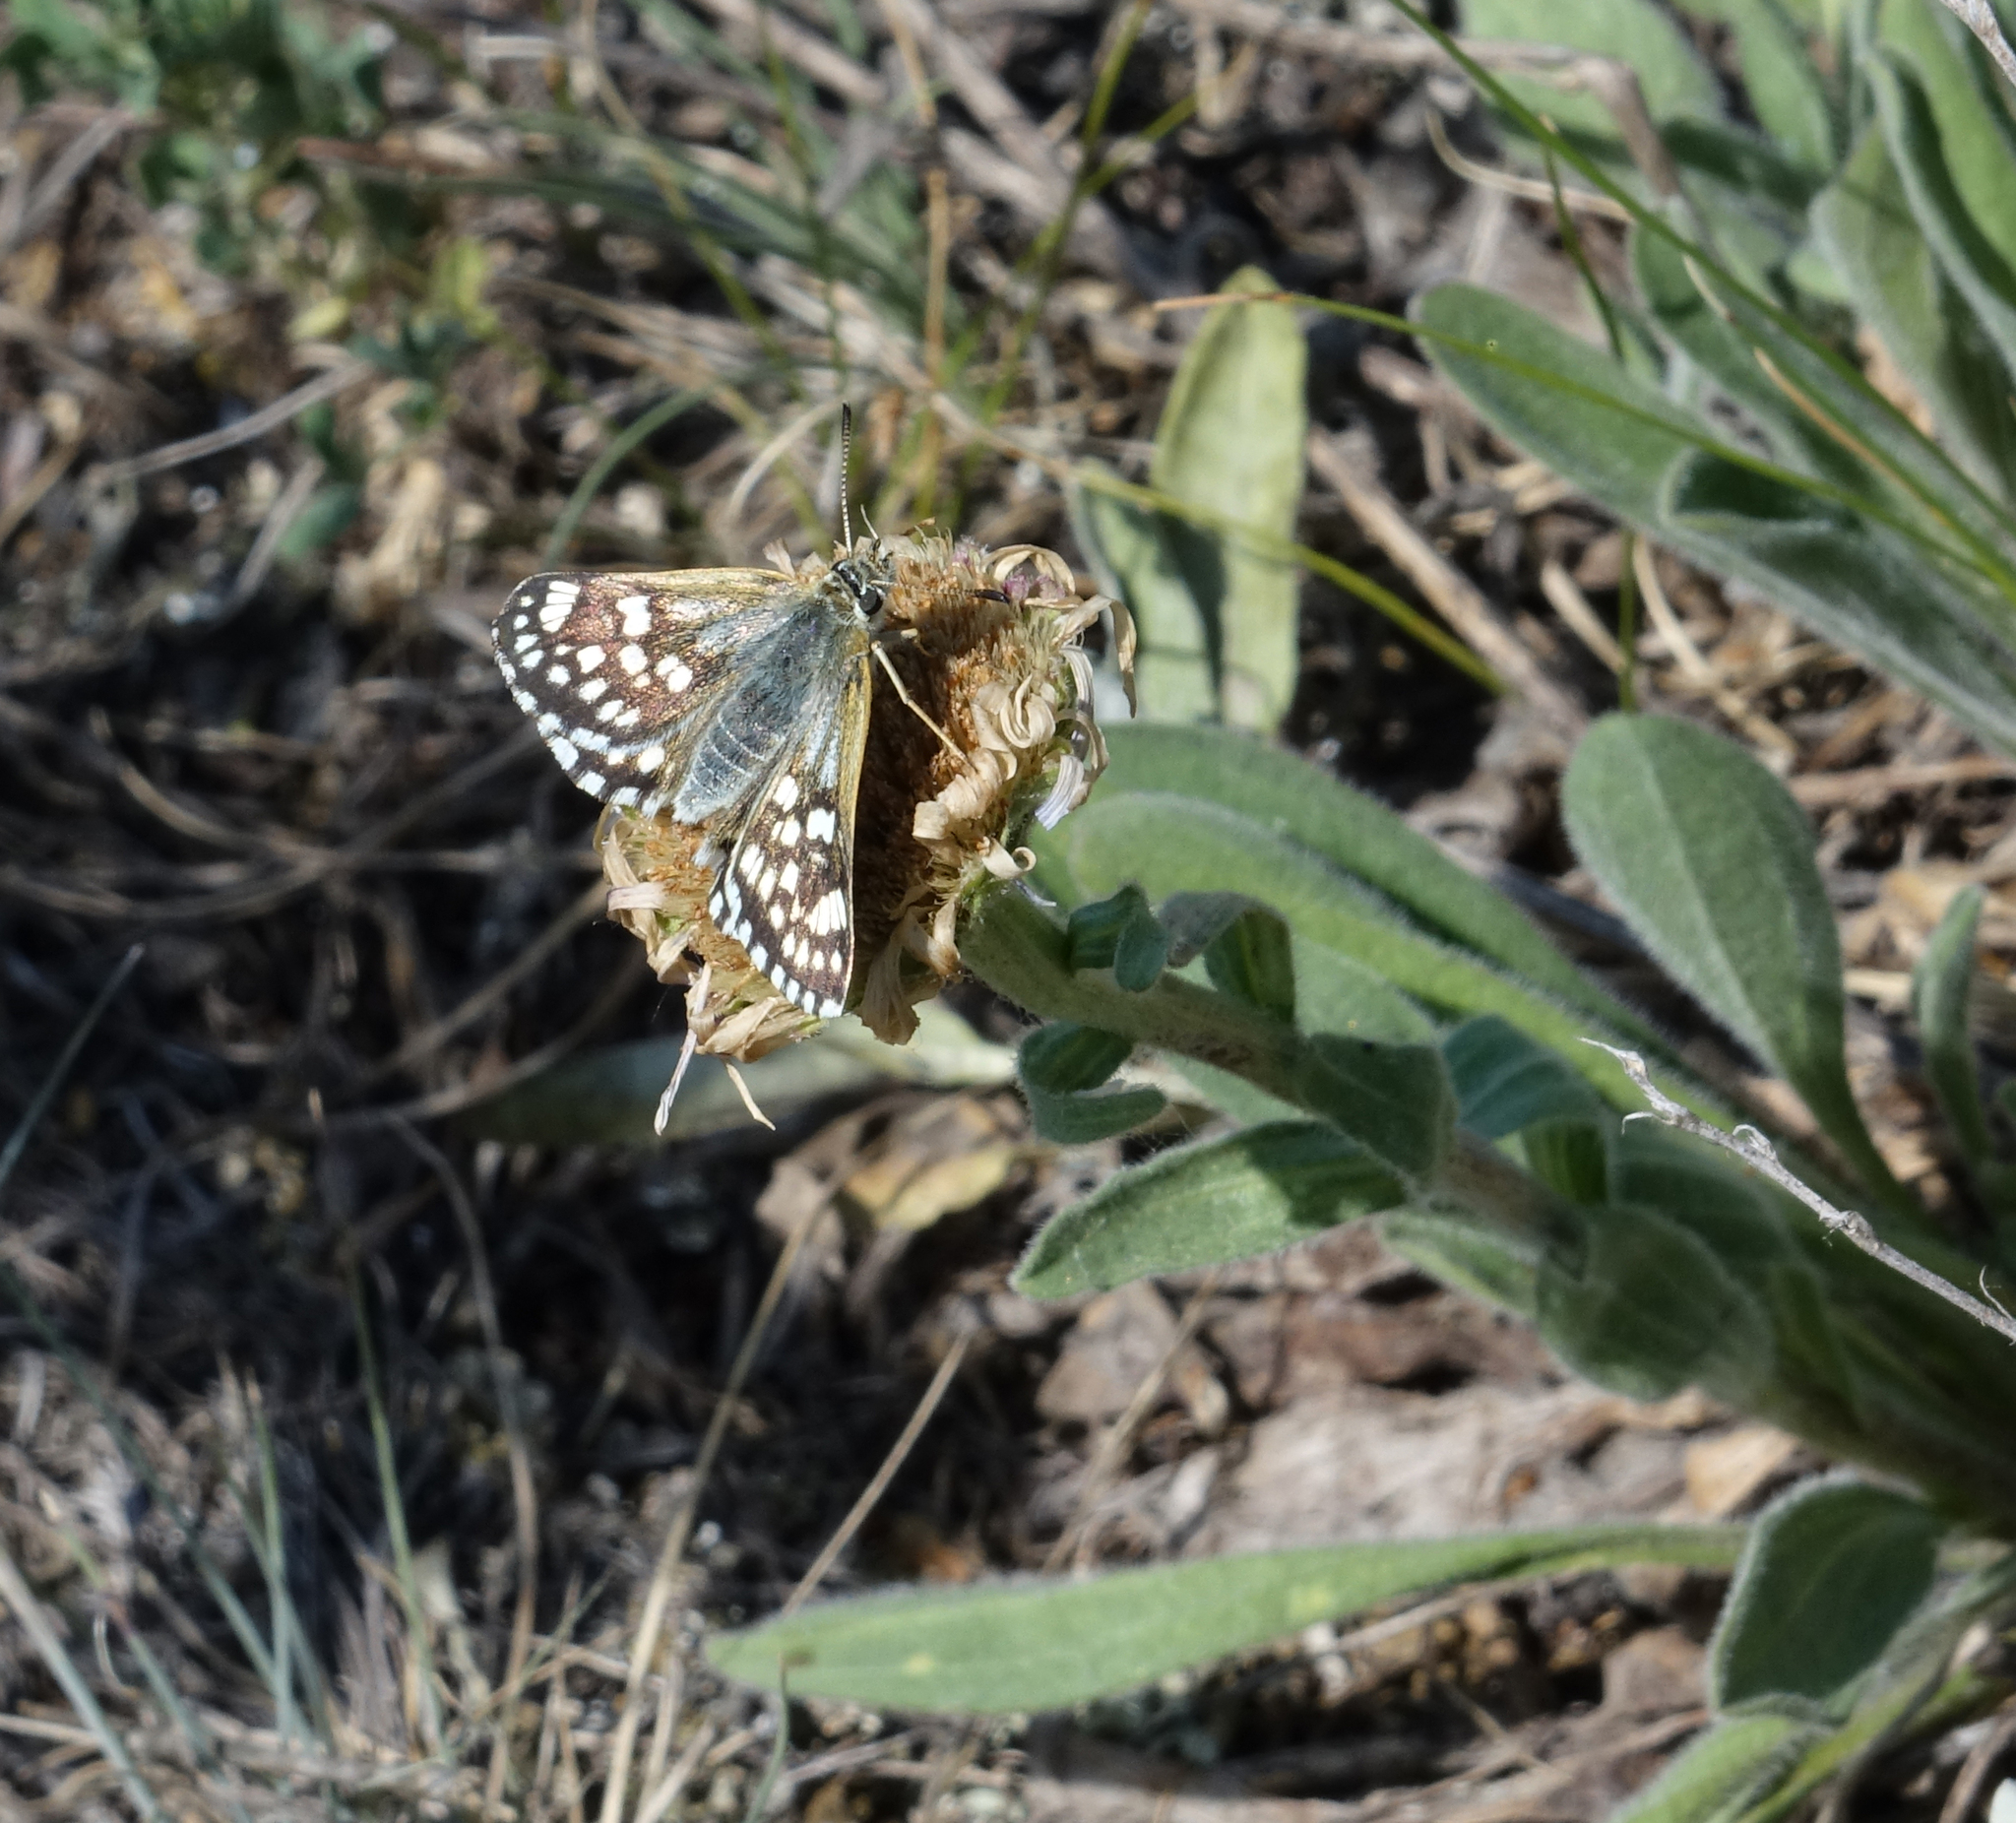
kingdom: Animalia
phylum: Arthropoda
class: Insecta
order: Lepidoptera
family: Hesperiidae
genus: Syrichtus
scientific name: Syrichtus cribrellum
